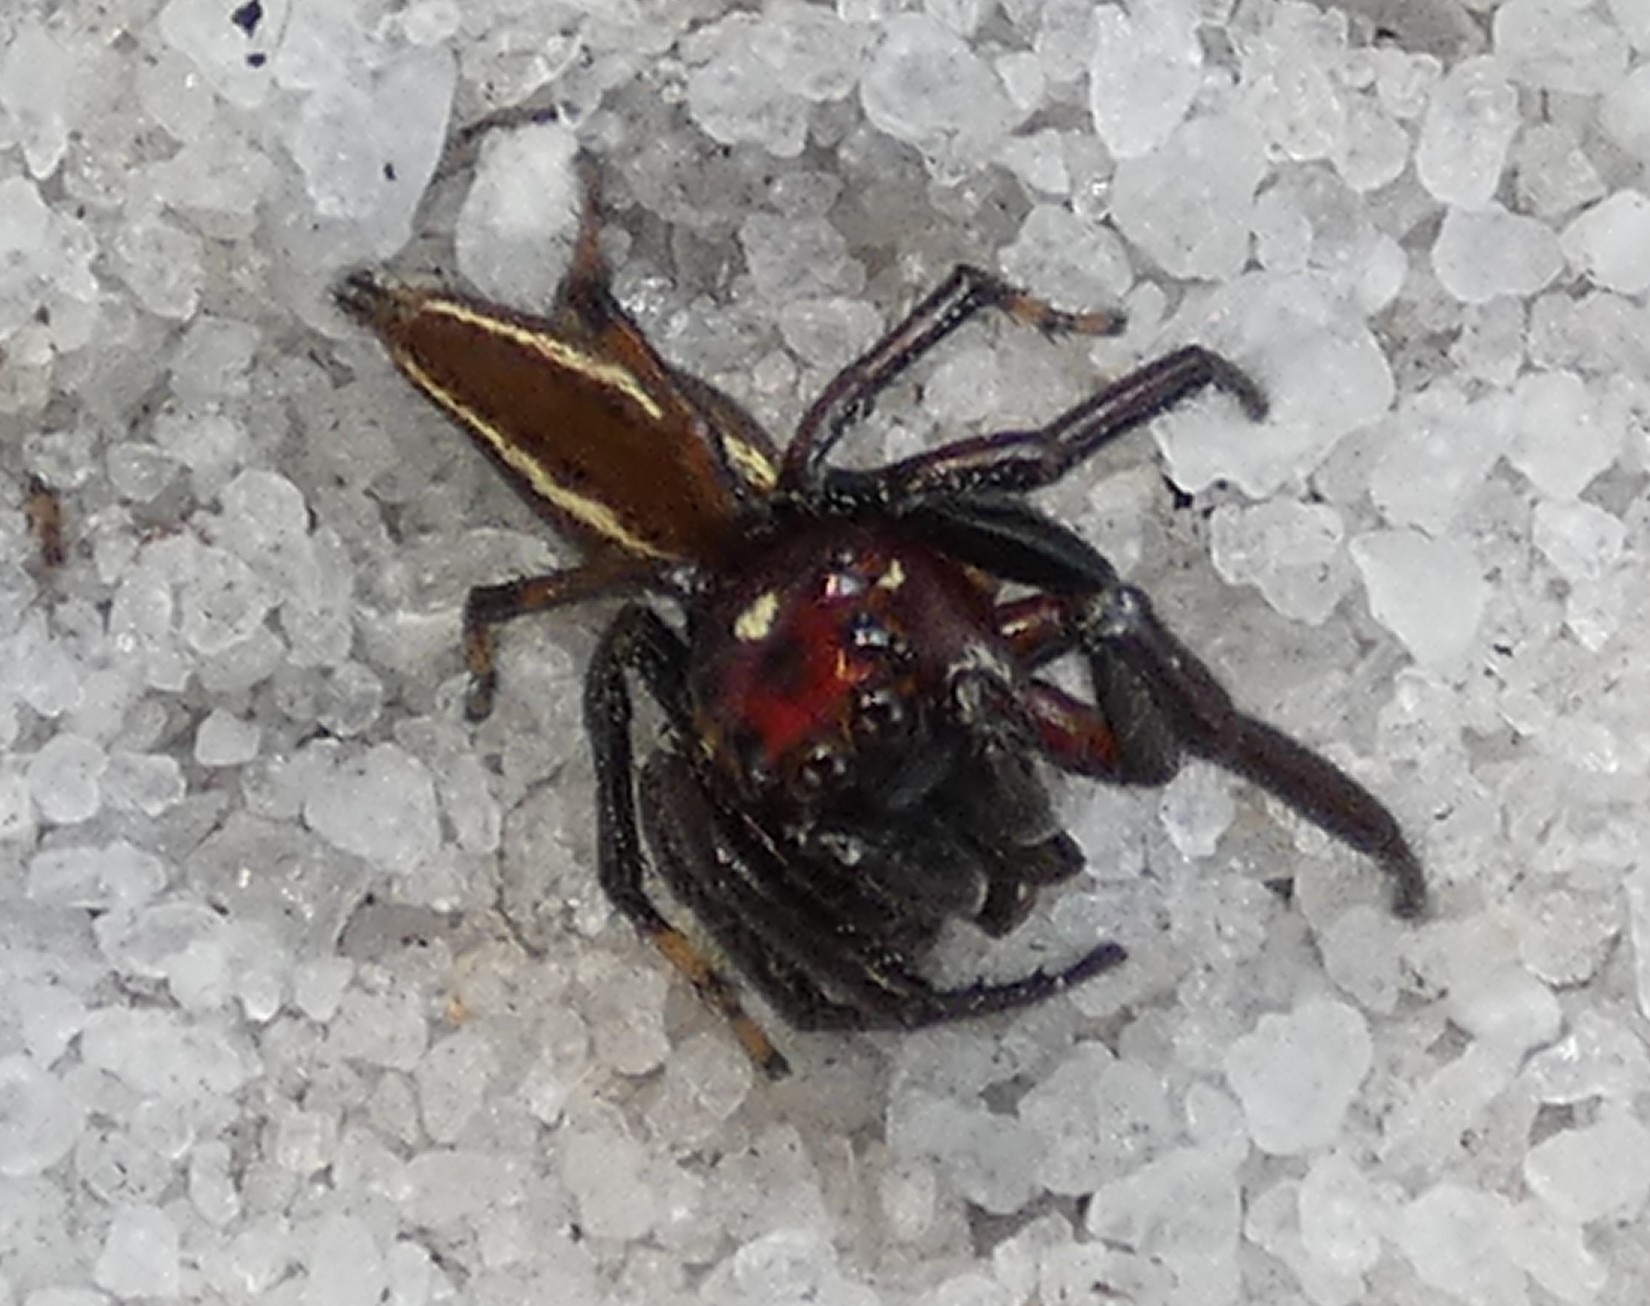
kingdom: Animalia
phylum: Arthropoda
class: Arachnida
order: Araneae
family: Salticidae
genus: Colonus
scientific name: Colonus sylvanus
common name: Jumping spiders
